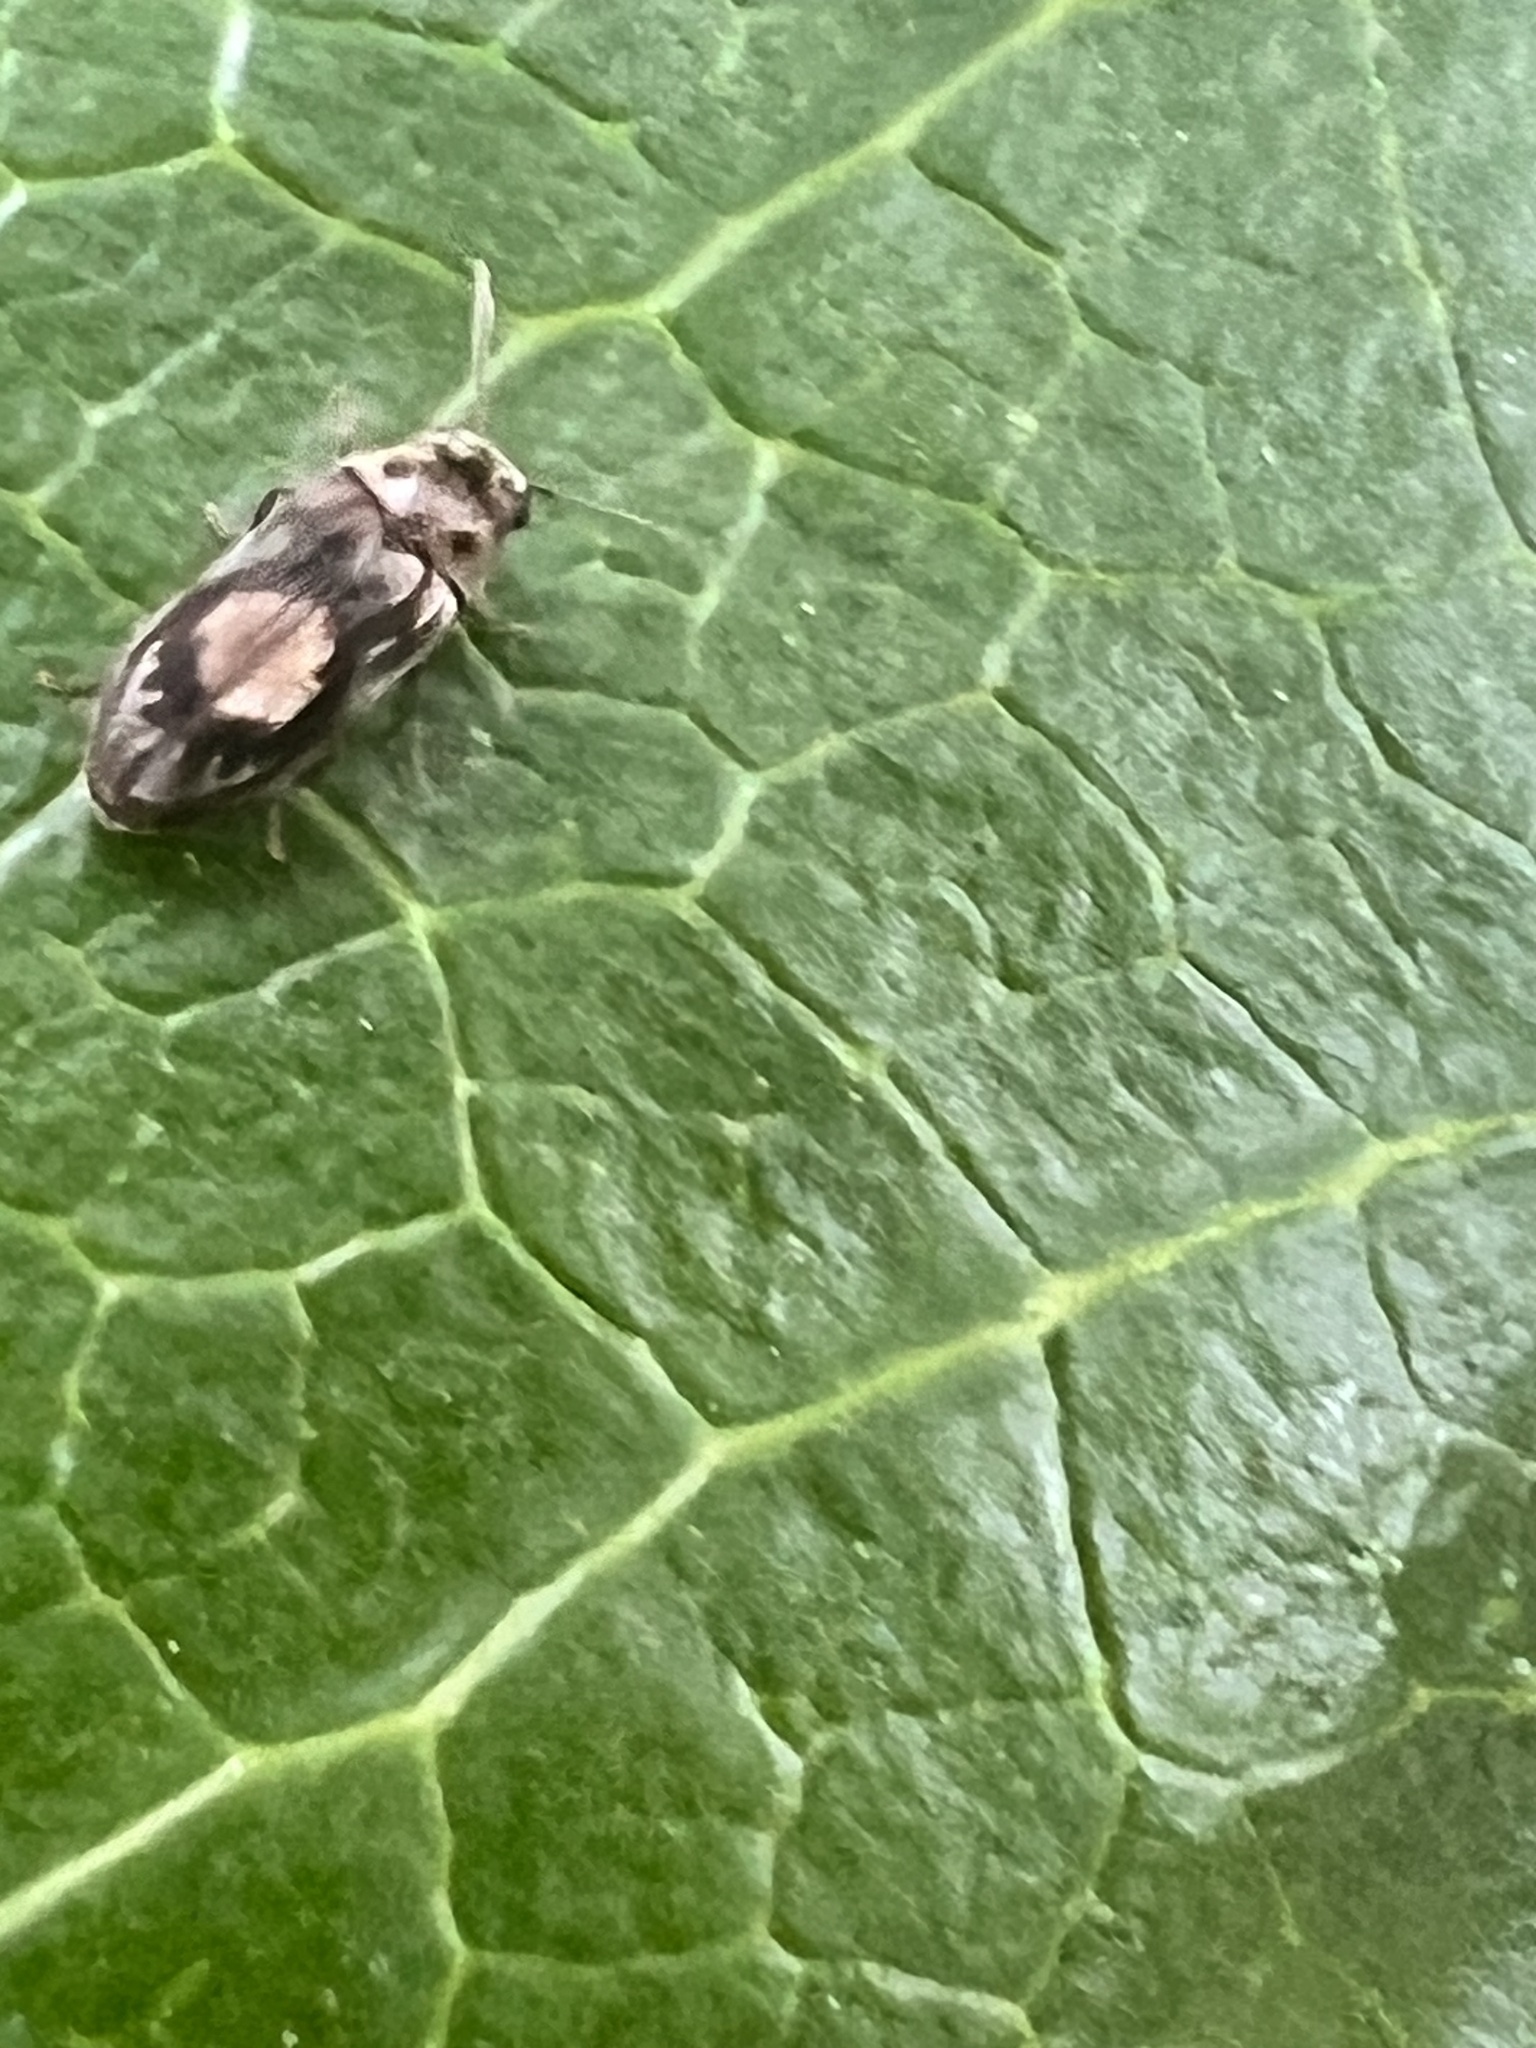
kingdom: Animalia
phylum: Arthropoda
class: Insecta
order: Coleoptera
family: Ptinidae
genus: Leanobium
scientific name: Leanobium
